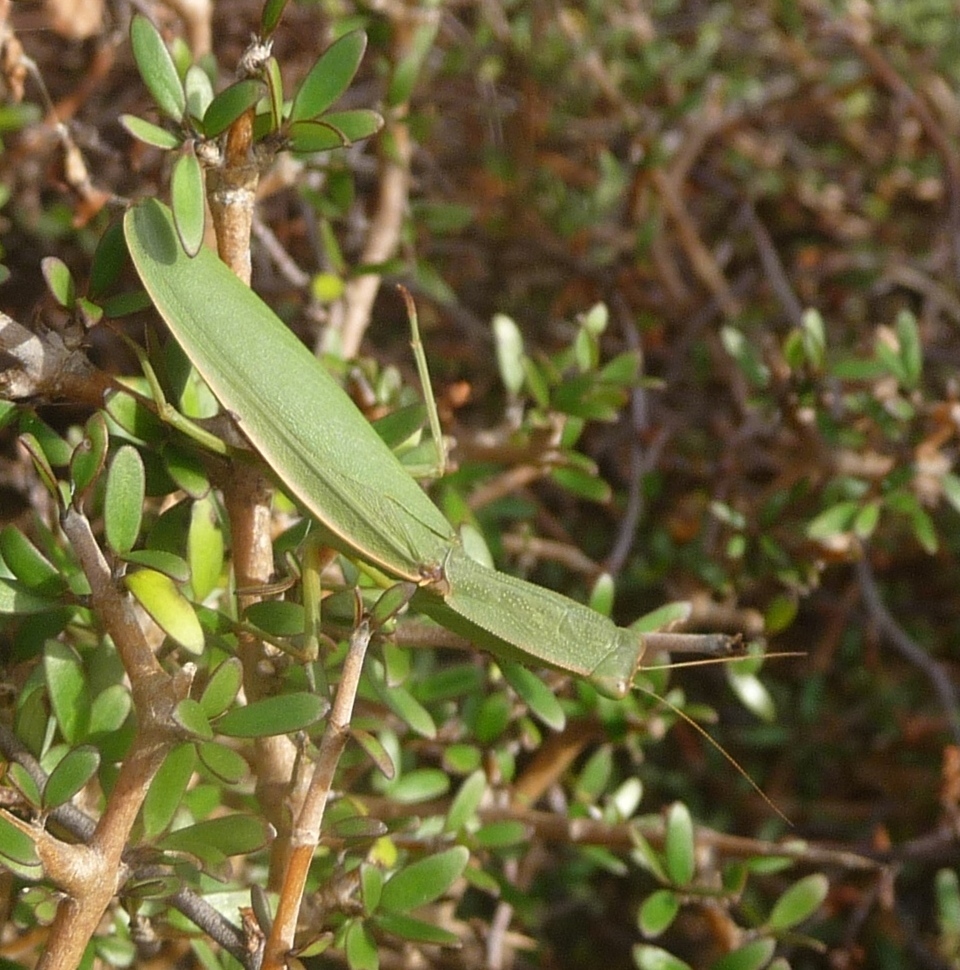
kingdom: Animalia
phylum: Arthropoda
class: Insecta
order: Mantodea
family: Mantidae
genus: Orthodera
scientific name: Orthodera novaezealandiae
